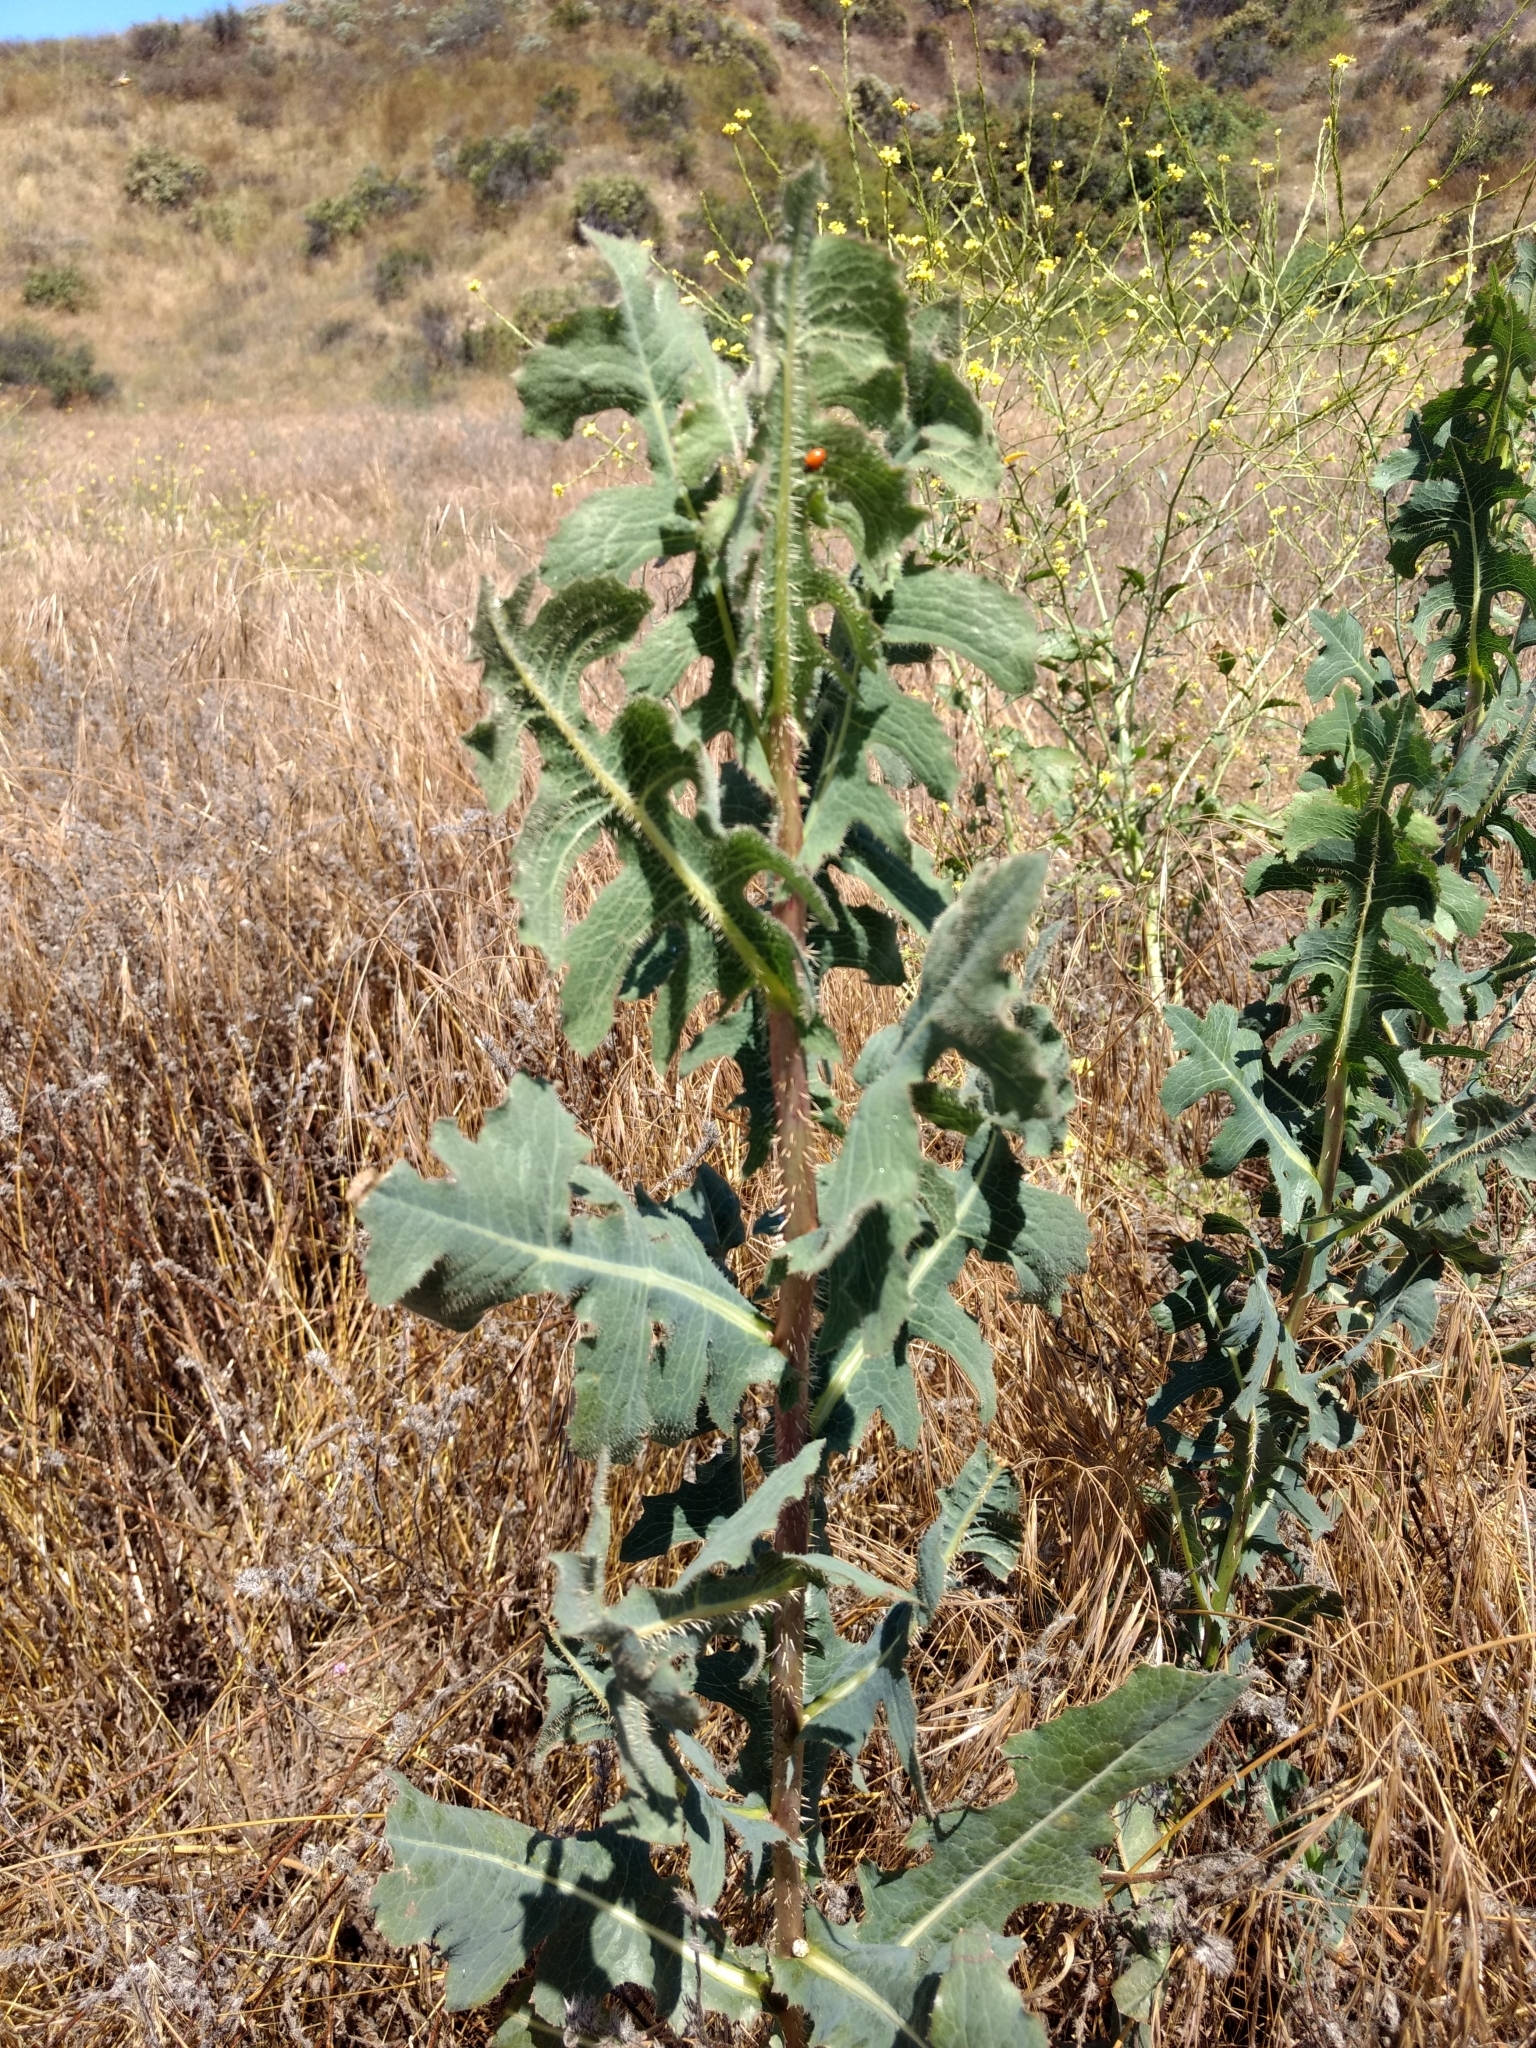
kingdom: Plantae
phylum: Tracheophyta
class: Magnoliopsida
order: Asterales
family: Asteraceae
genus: Lactuca
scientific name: Lactuca serriola
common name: Prickly lettuce
